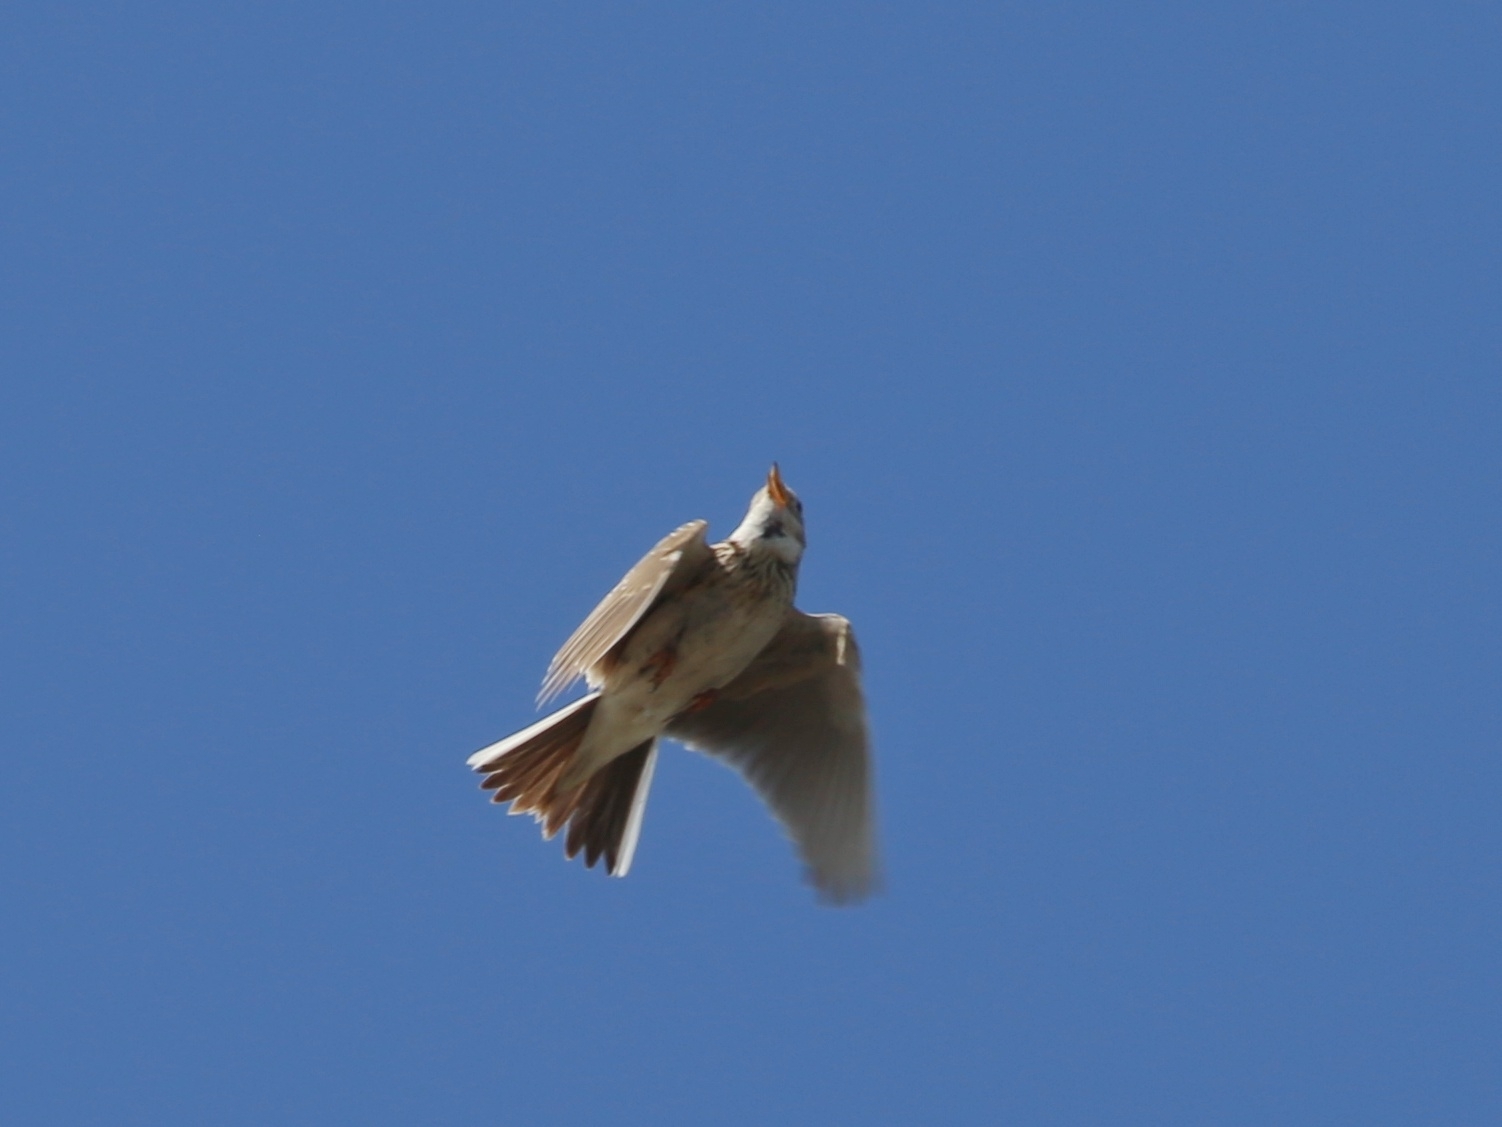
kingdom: Animalia
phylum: Chordata
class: Aves
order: Passeriformes
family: Alaudidae
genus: Alauda
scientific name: Alauda arvensis
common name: Eurasian skylark
